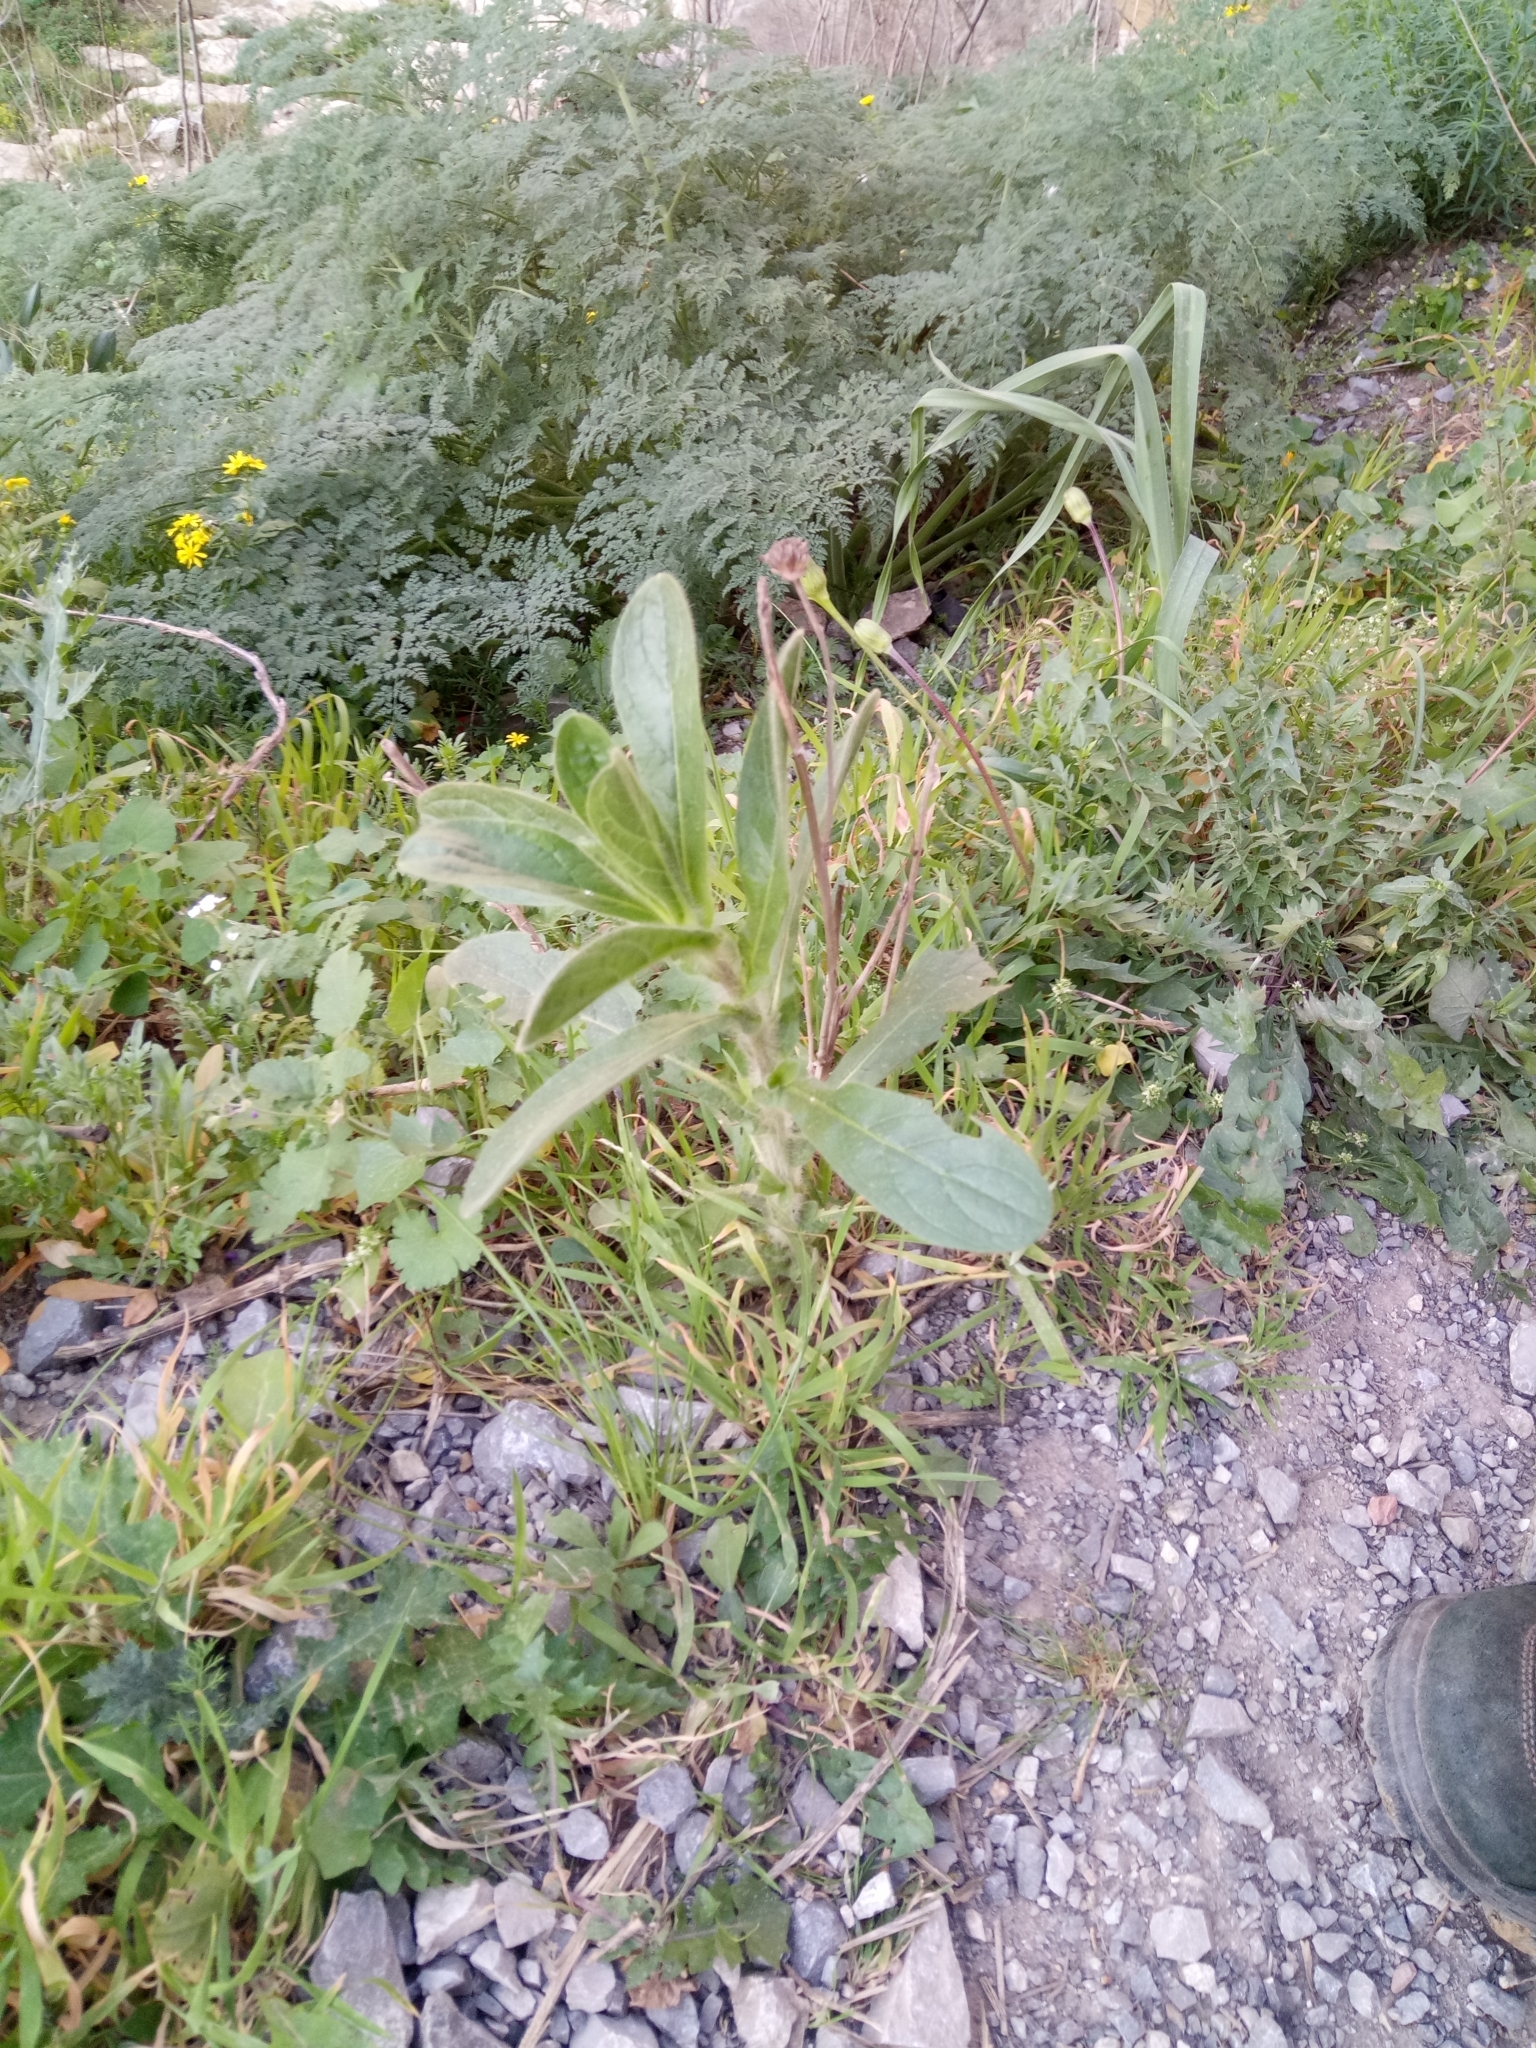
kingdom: Plantae
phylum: Tracheophyta
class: Magnoliopsida
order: Asterales
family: Asteraceae
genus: Pallenis
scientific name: Pallenis spinosa
